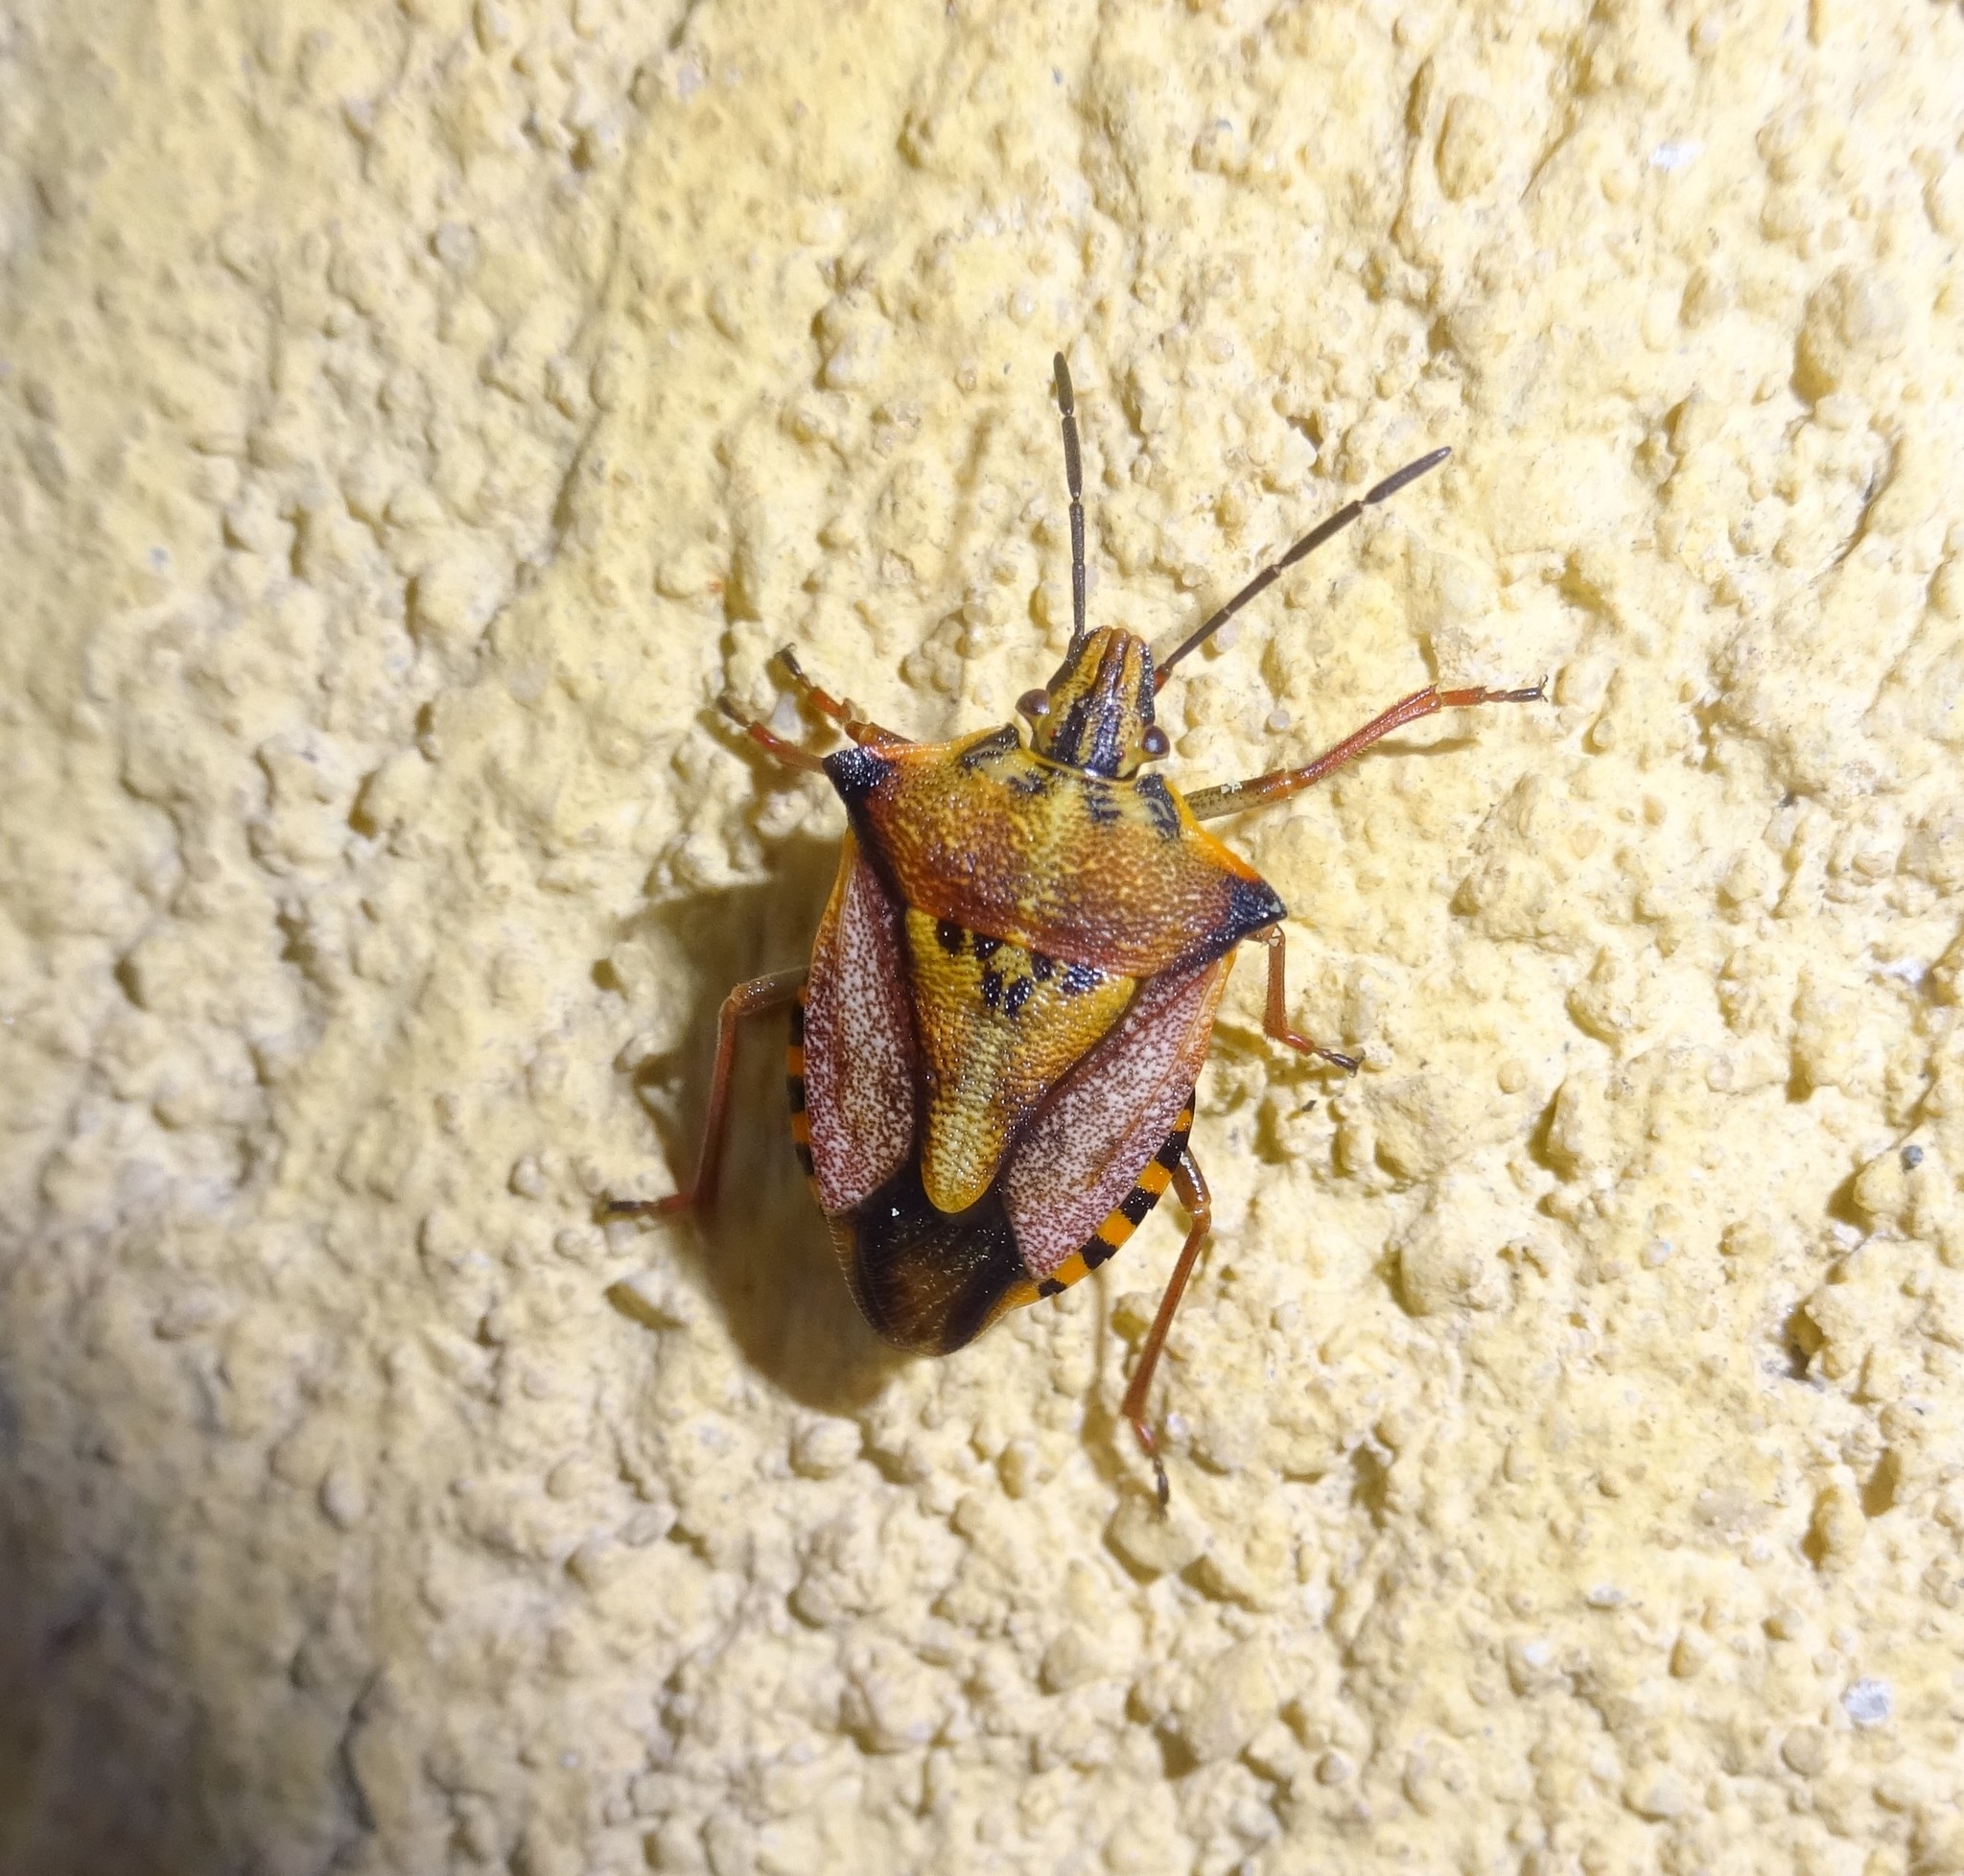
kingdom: Animalia
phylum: Arthropoda
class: Insecta
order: Hemiptera
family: Pentatomidae
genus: Carpocoris
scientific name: Carpocoris mediterraneus
